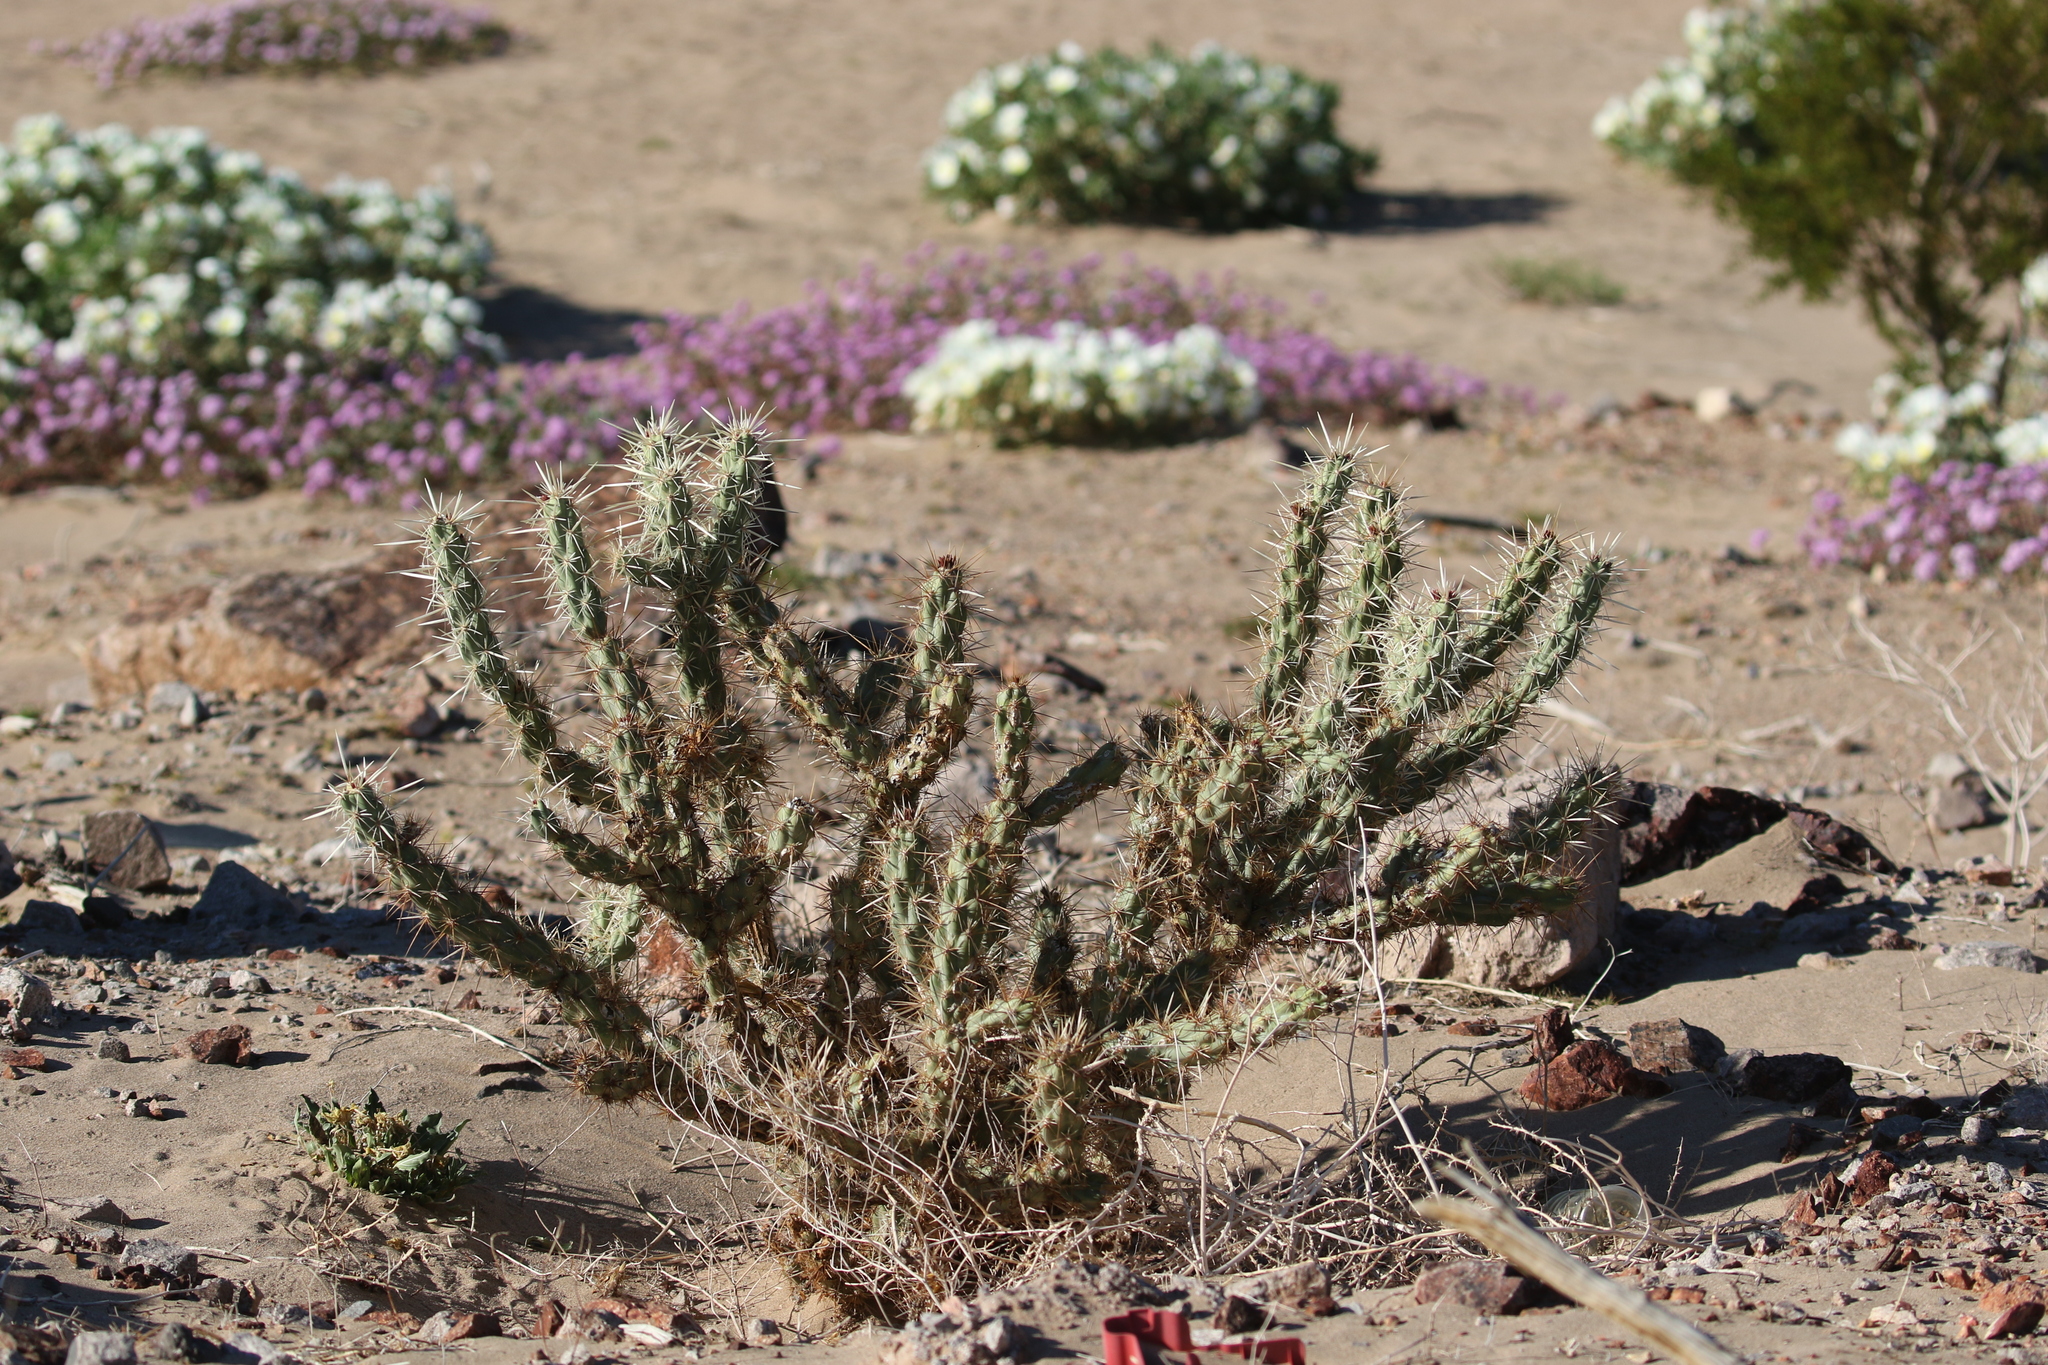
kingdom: Plantae
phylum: Tracheophyta
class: Magnoliopsida
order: Caryophyllales
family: Cactaceae
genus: Cylindropuntia
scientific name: Cylindropuntia acanthocarpa
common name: Buckhorn cholla
